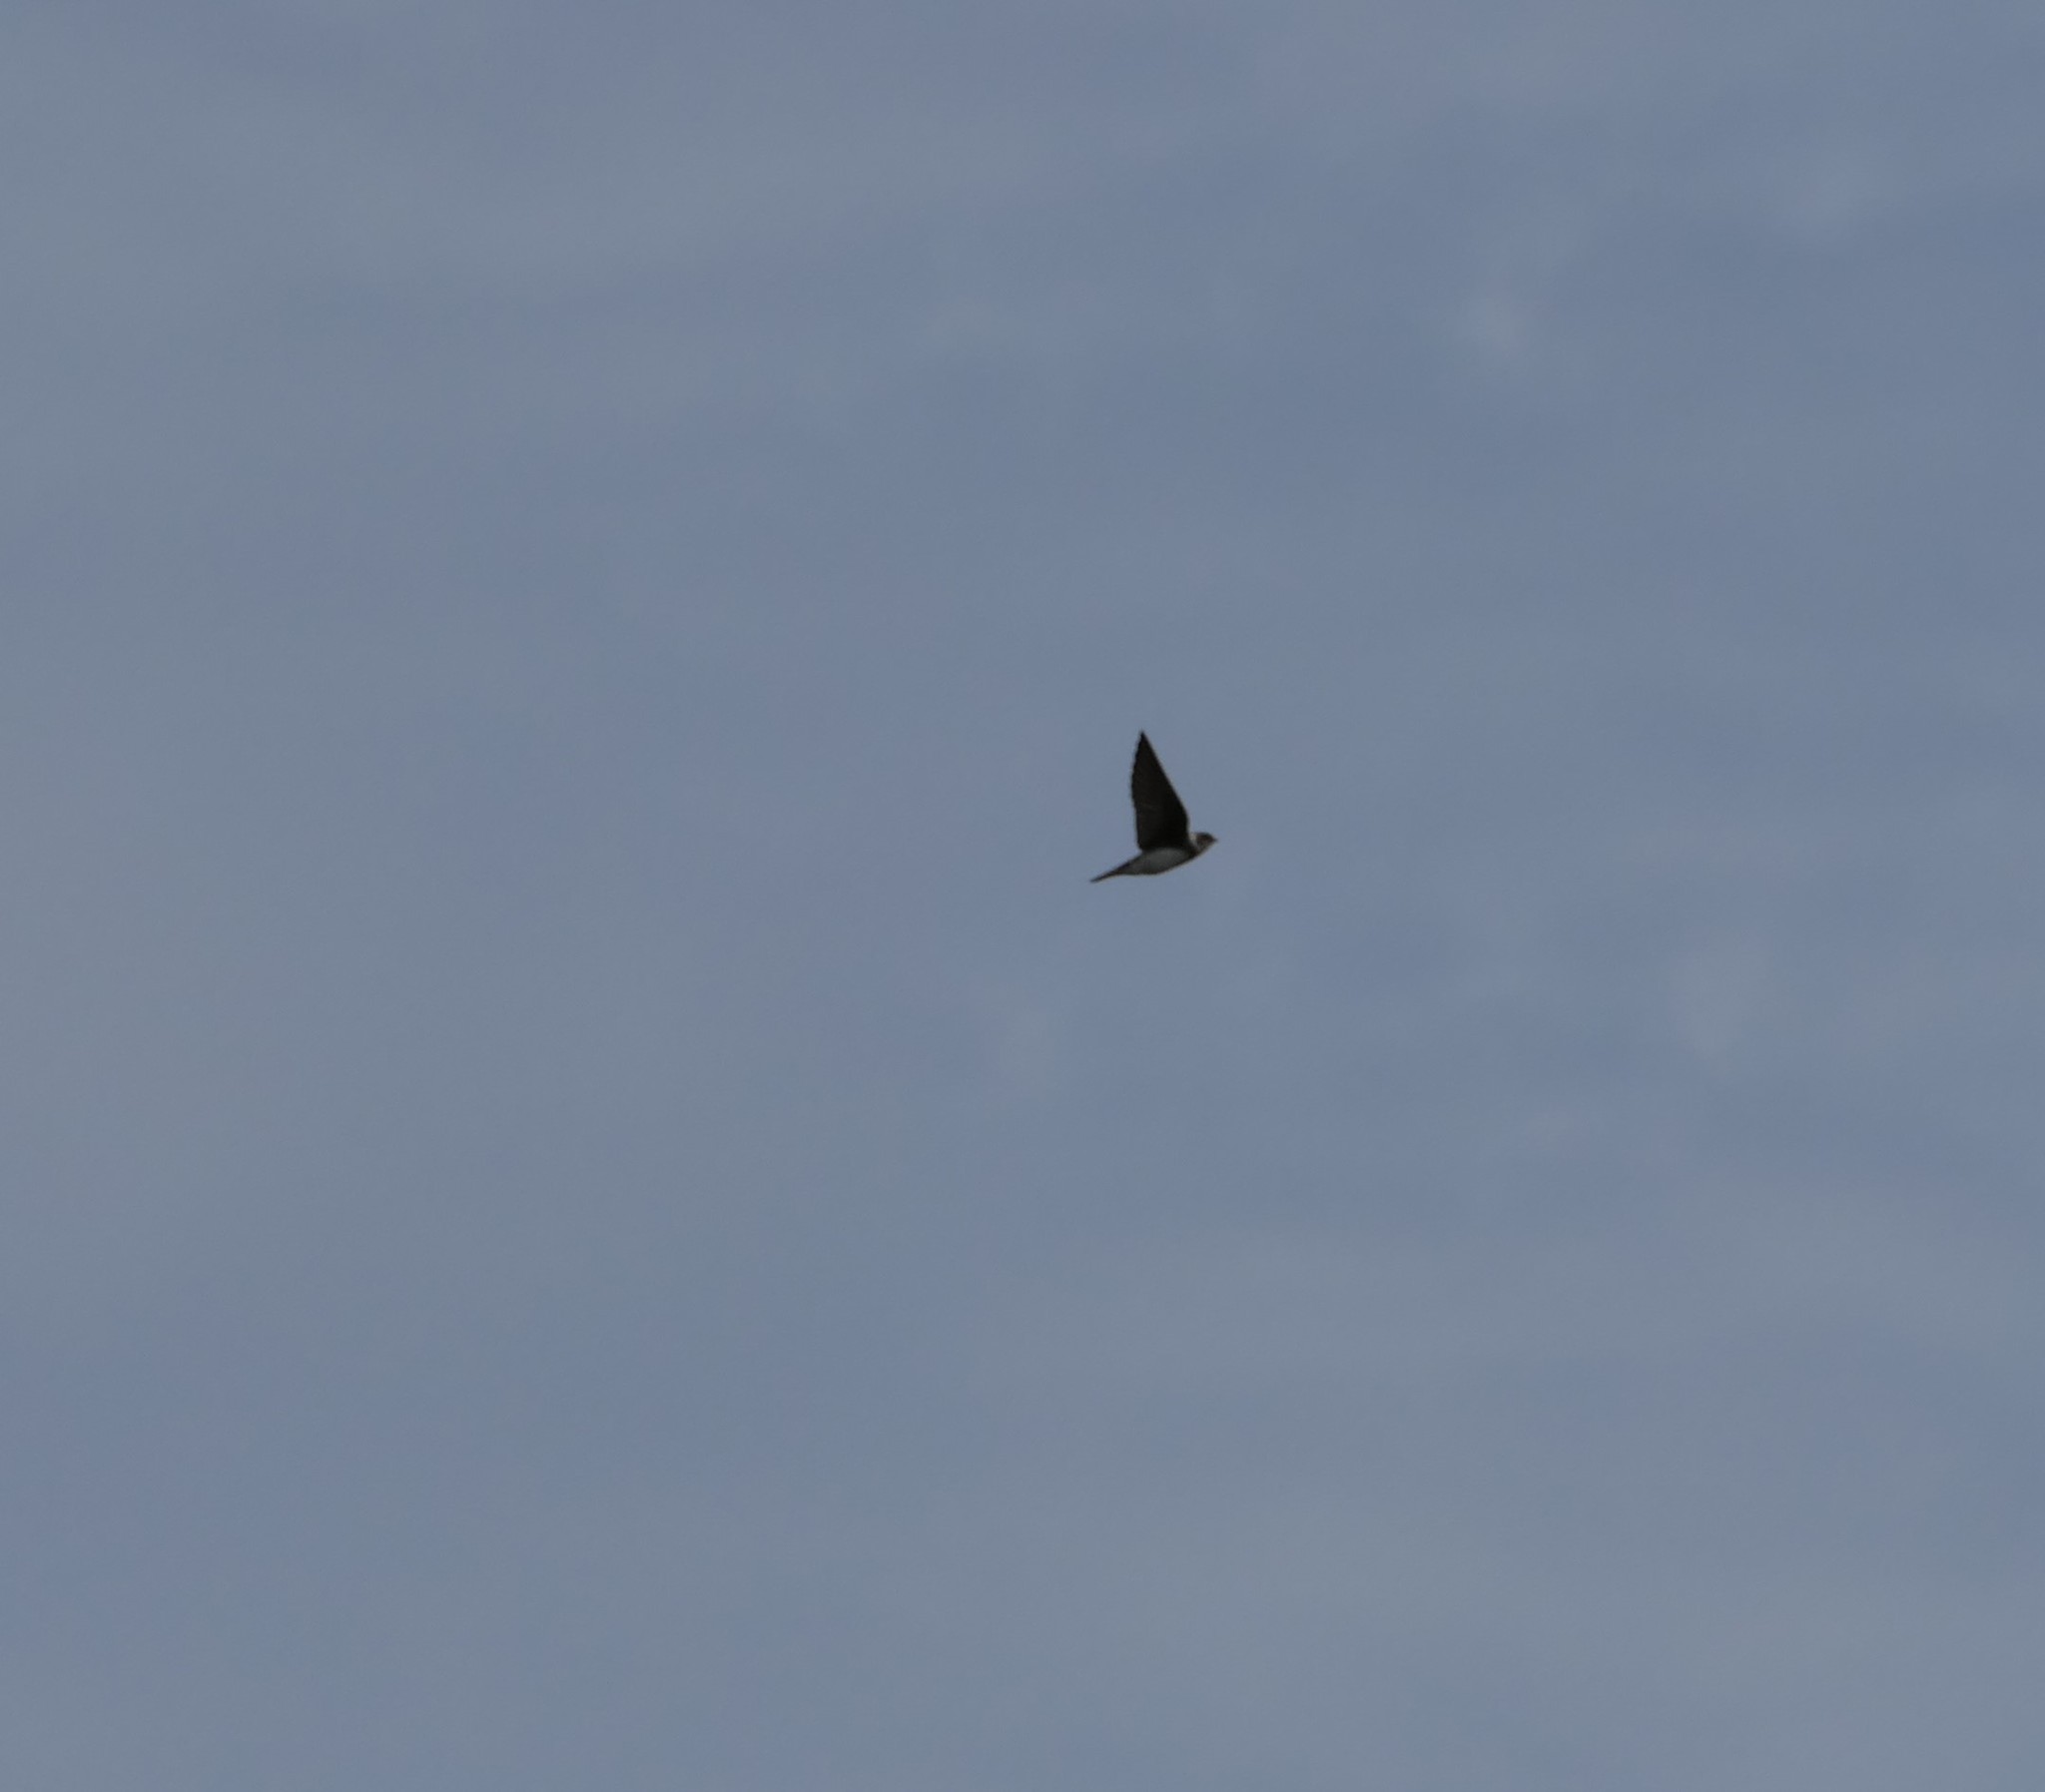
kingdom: Animalia
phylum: Chordata
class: Aves
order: Passeriformes
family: Hirundinidae
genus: Riparia
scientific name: Riparia riparia
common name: Sand martin
